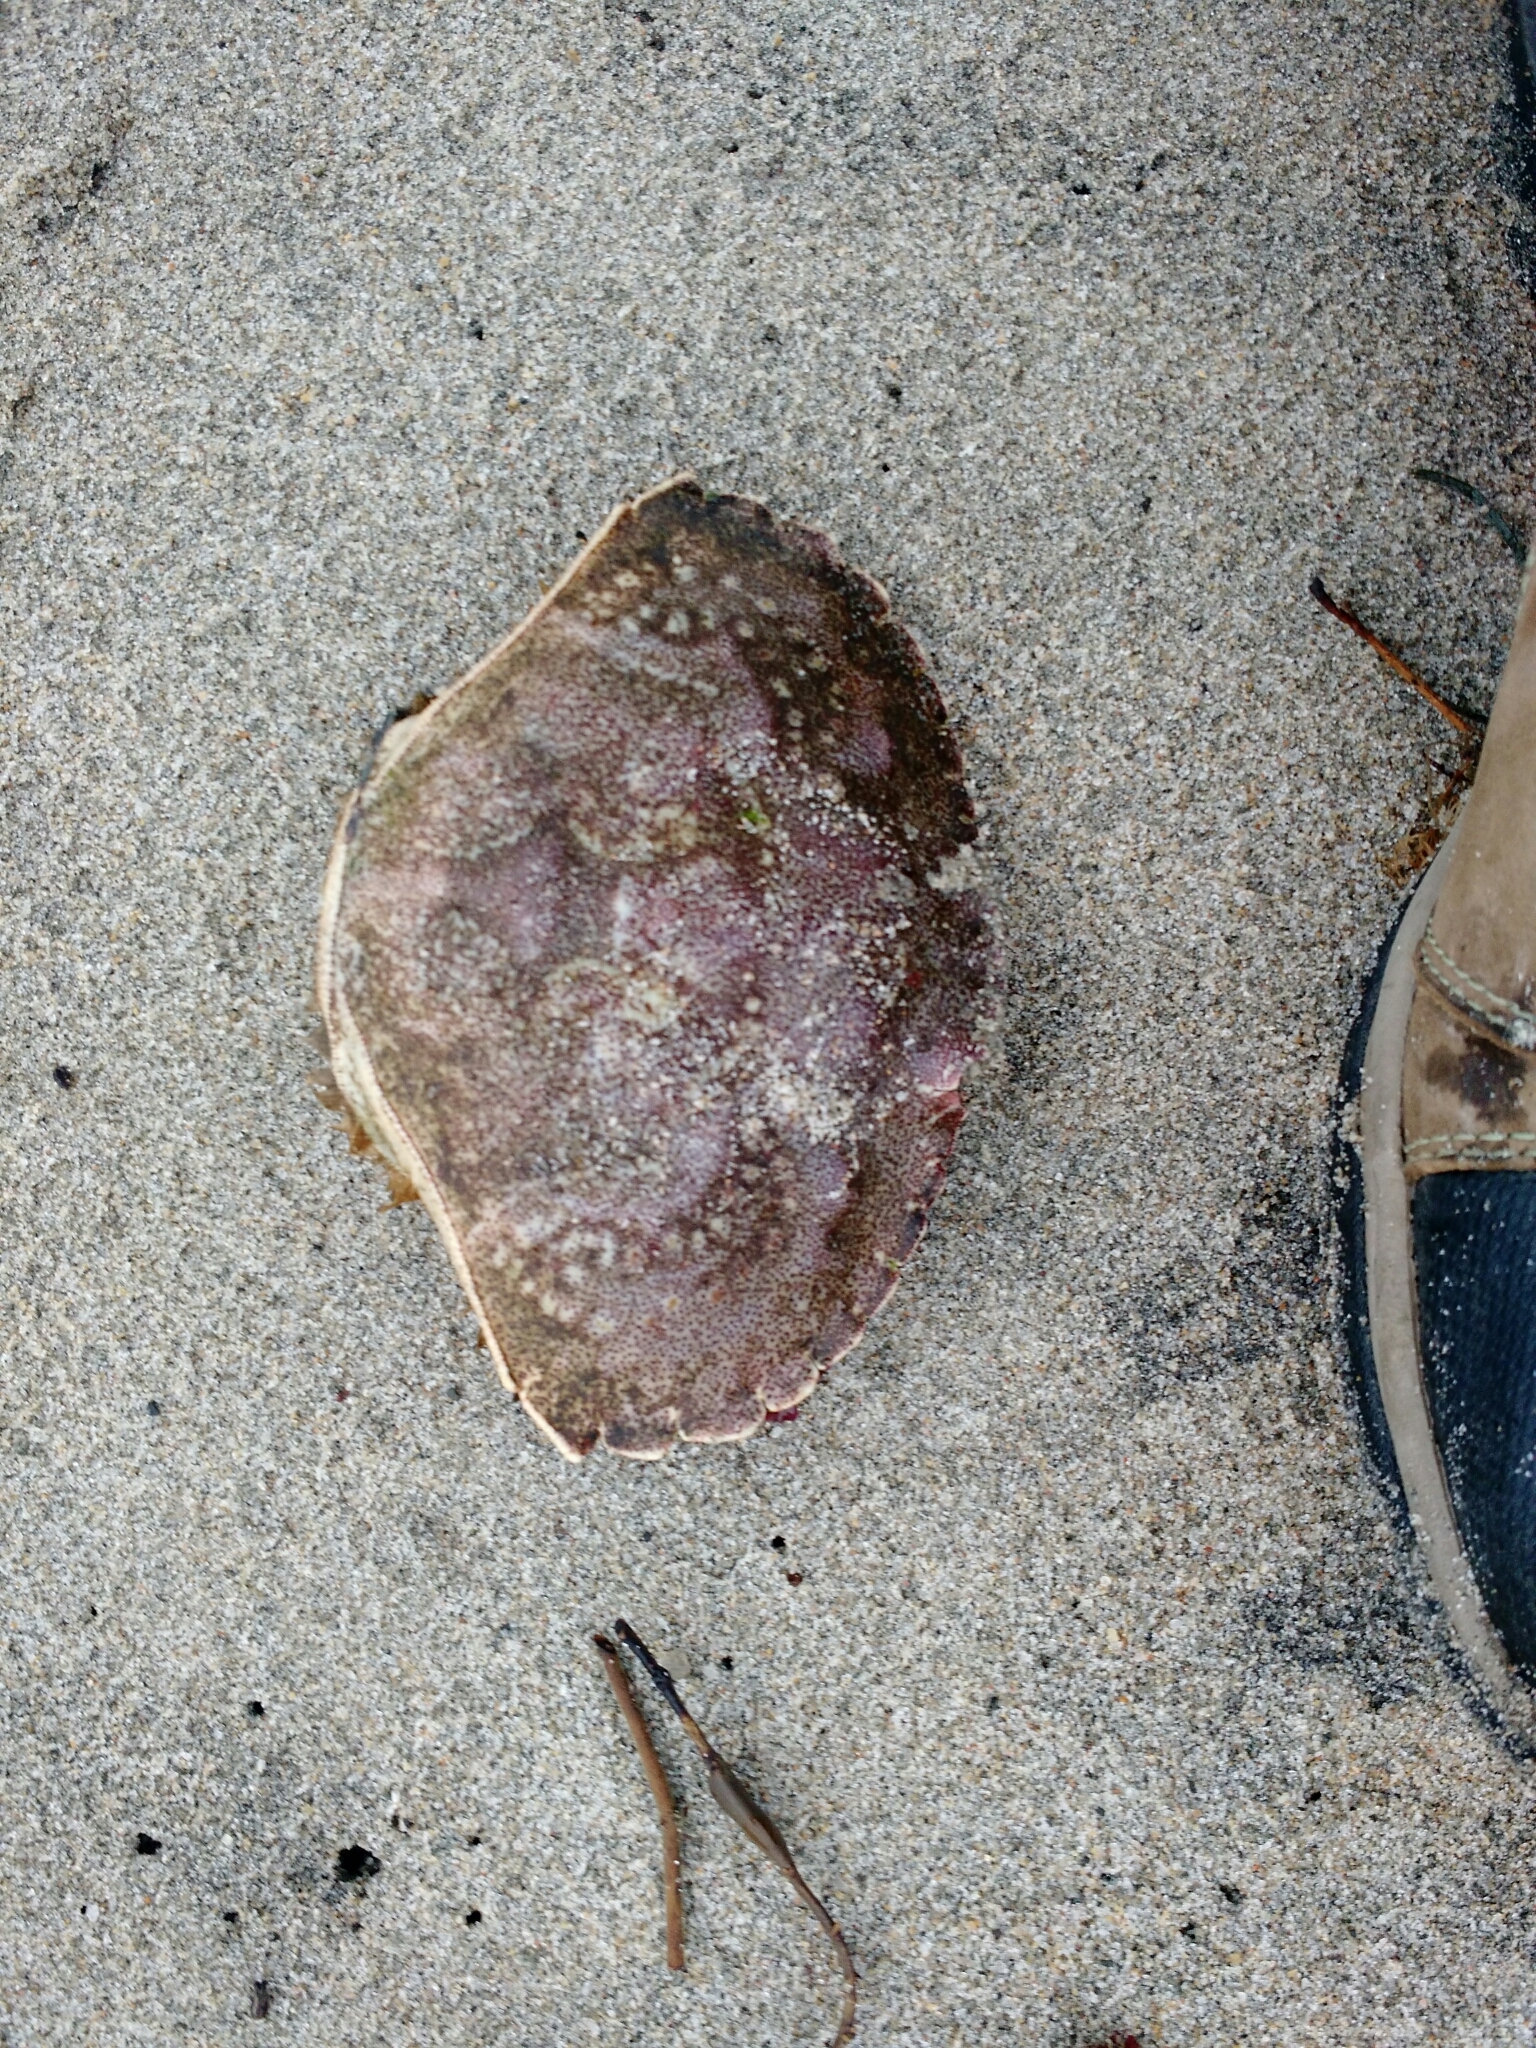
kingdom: Animalia
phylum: Arthropoda
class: Malacostraca
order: Decapoda
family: Cancridae
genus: Cancer
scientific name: Cancer irroratus
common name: Atlantic rock crab
